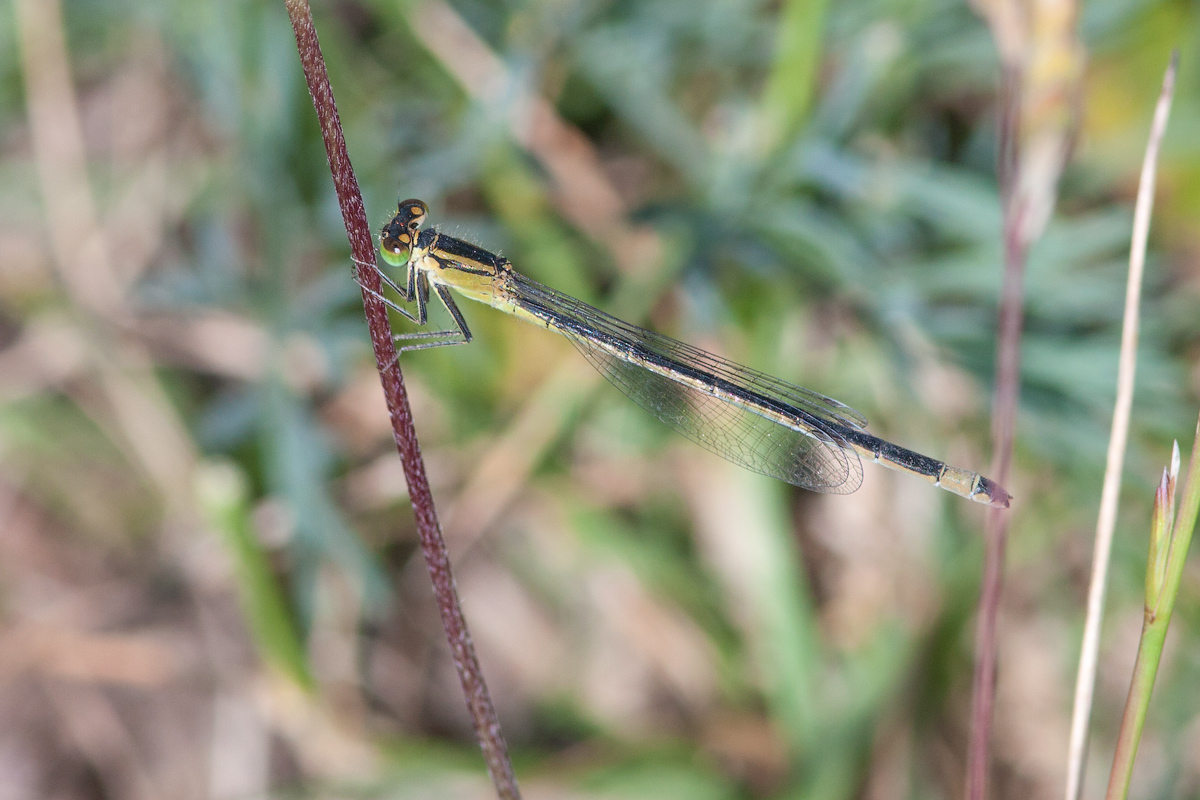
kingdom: Animalia
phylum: Arthropoda
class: Insecta
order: Odonata
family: Coenagrionidae
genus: Ischnura
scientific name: Ischnura elegans
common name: Blue-tailed damselfly
